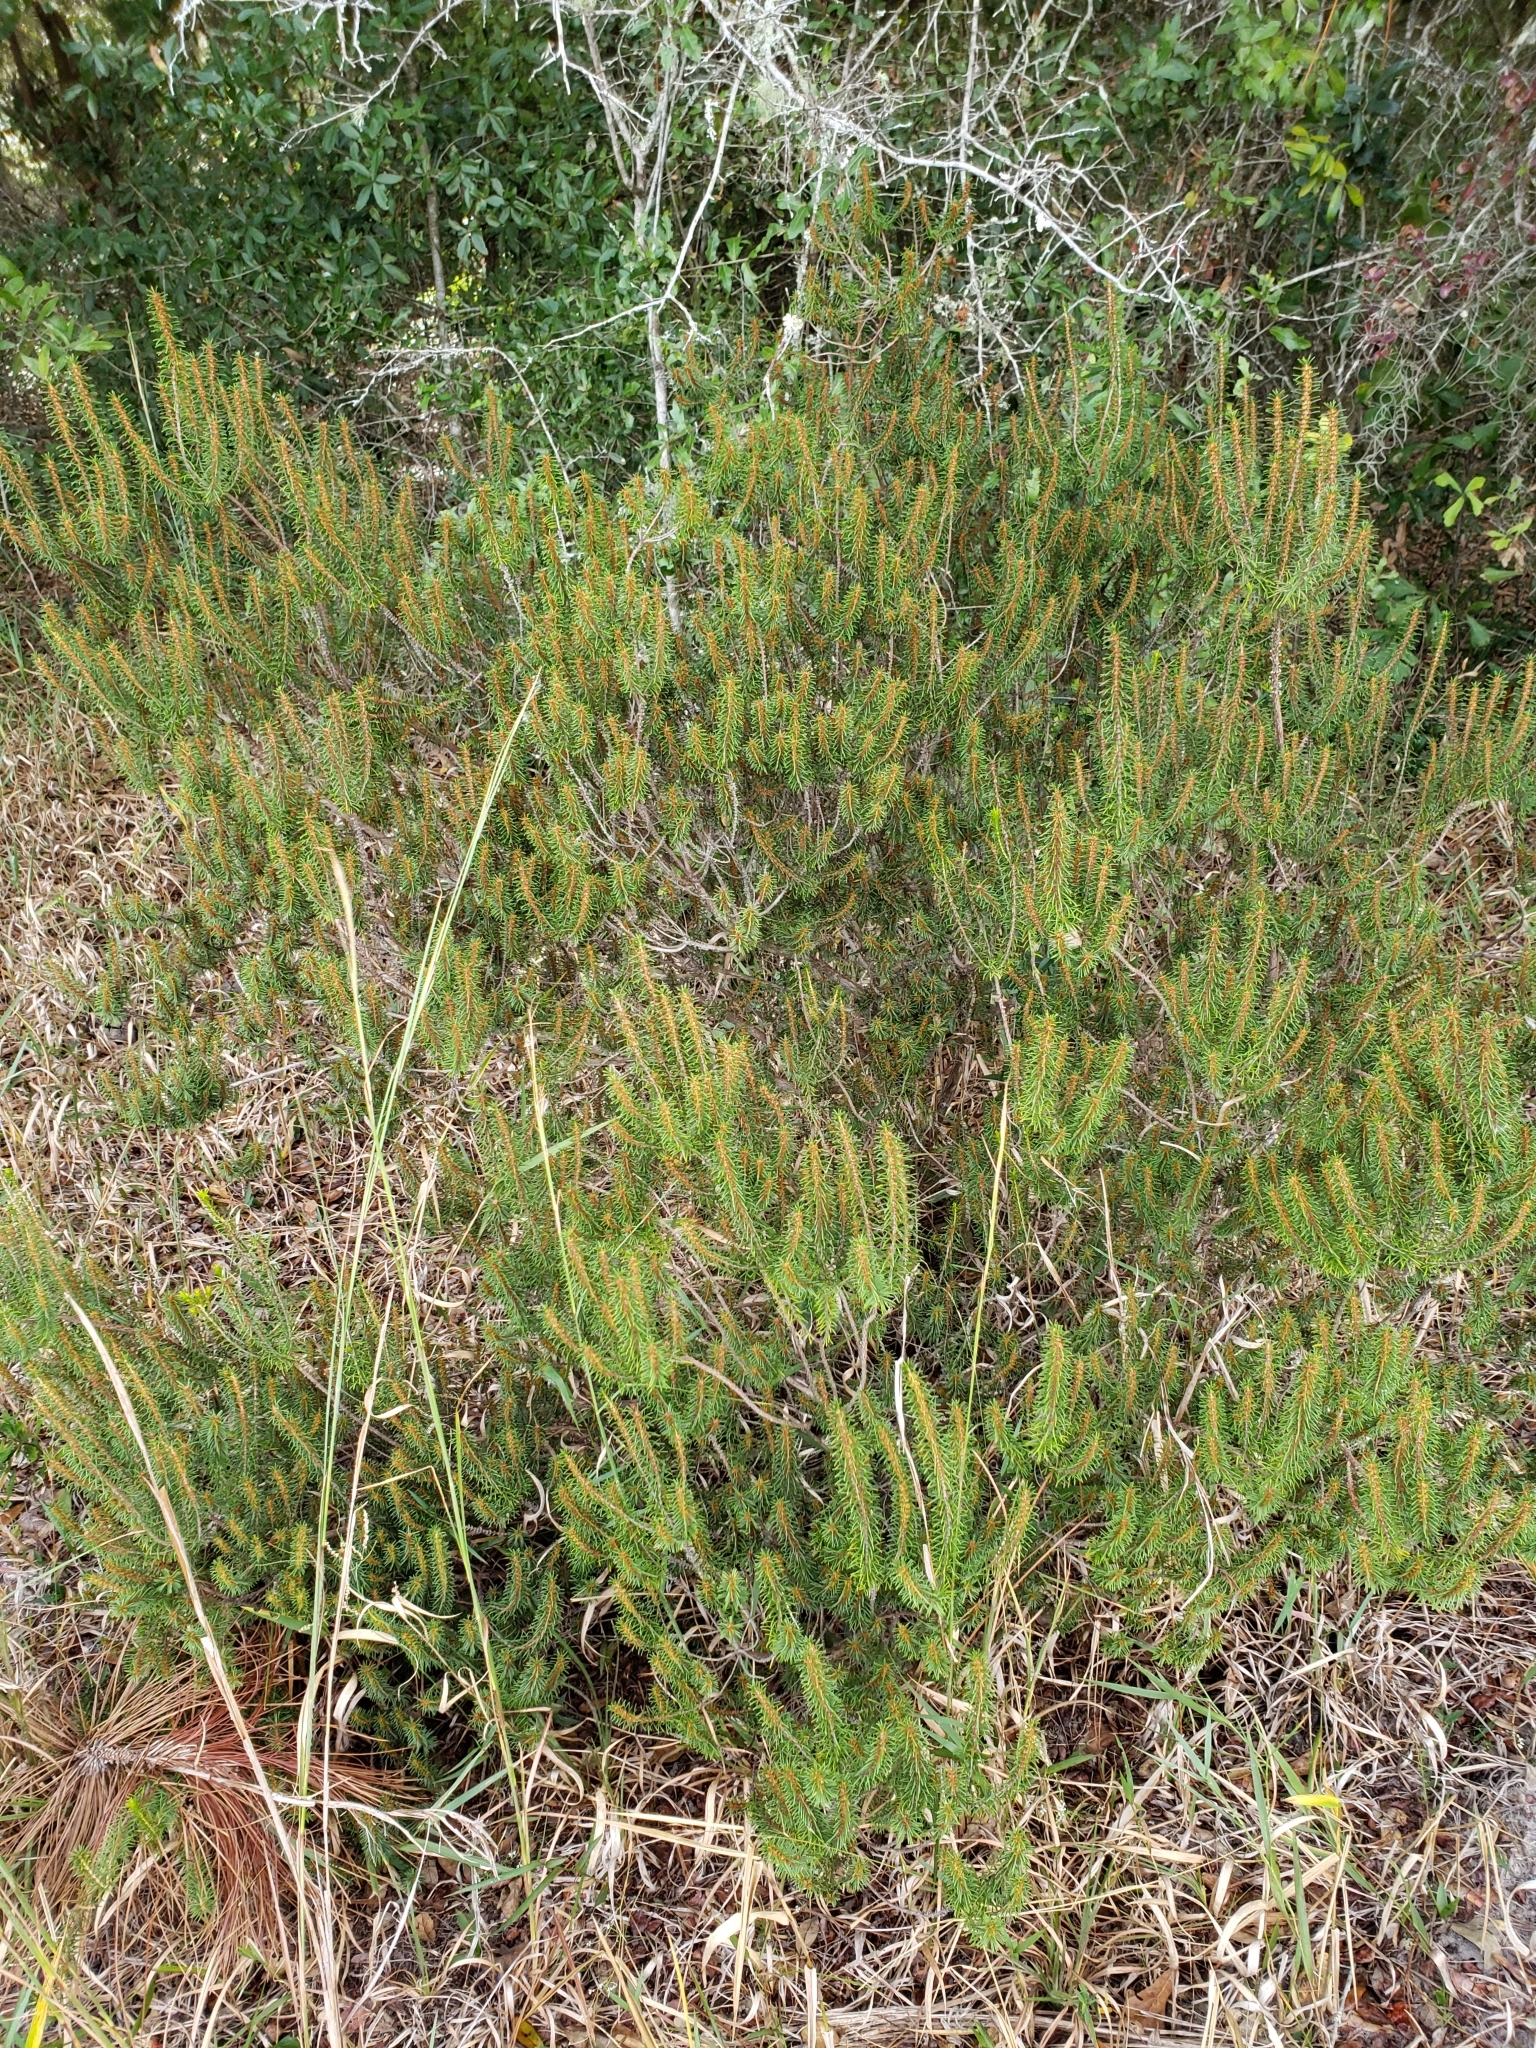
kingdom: Plantae
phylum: Tracheophyta
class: Magnoliopsida
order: Ericales
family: Ericaceae
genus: Ceratiola
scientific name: Ceratiola ericoides
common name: Sandhill-rosemary
